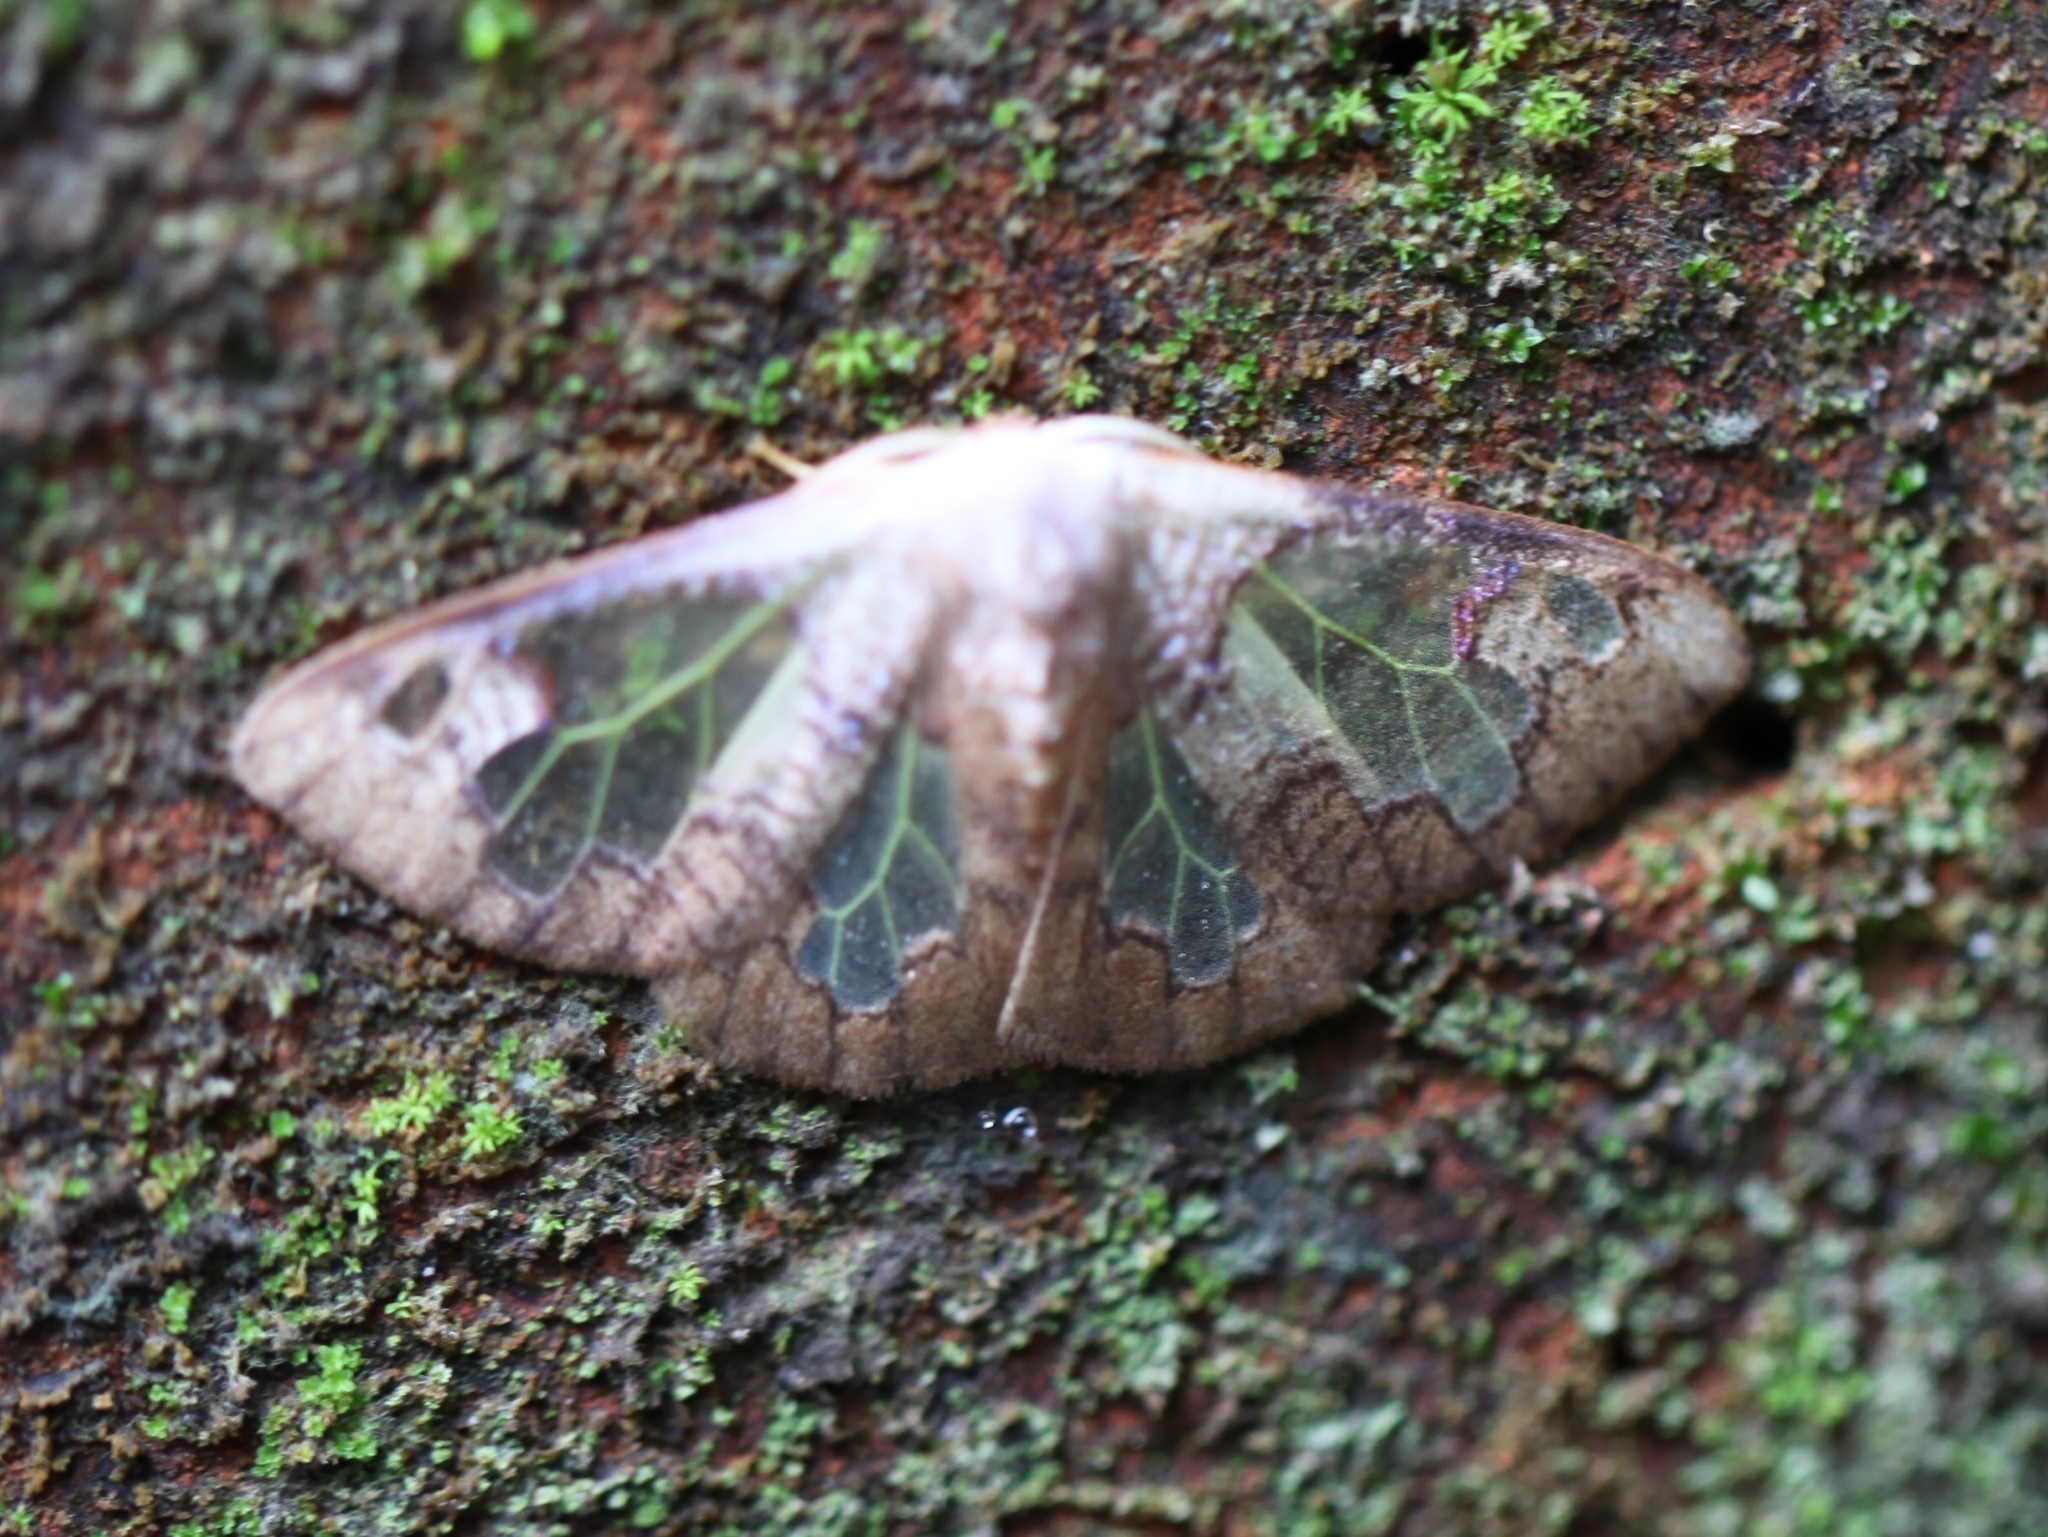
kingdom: Animalia
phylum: Arthropoda
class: Insecta
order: Lepidoptera
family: Erebidae
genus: Carriola
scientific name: Carriola ecnomoda
